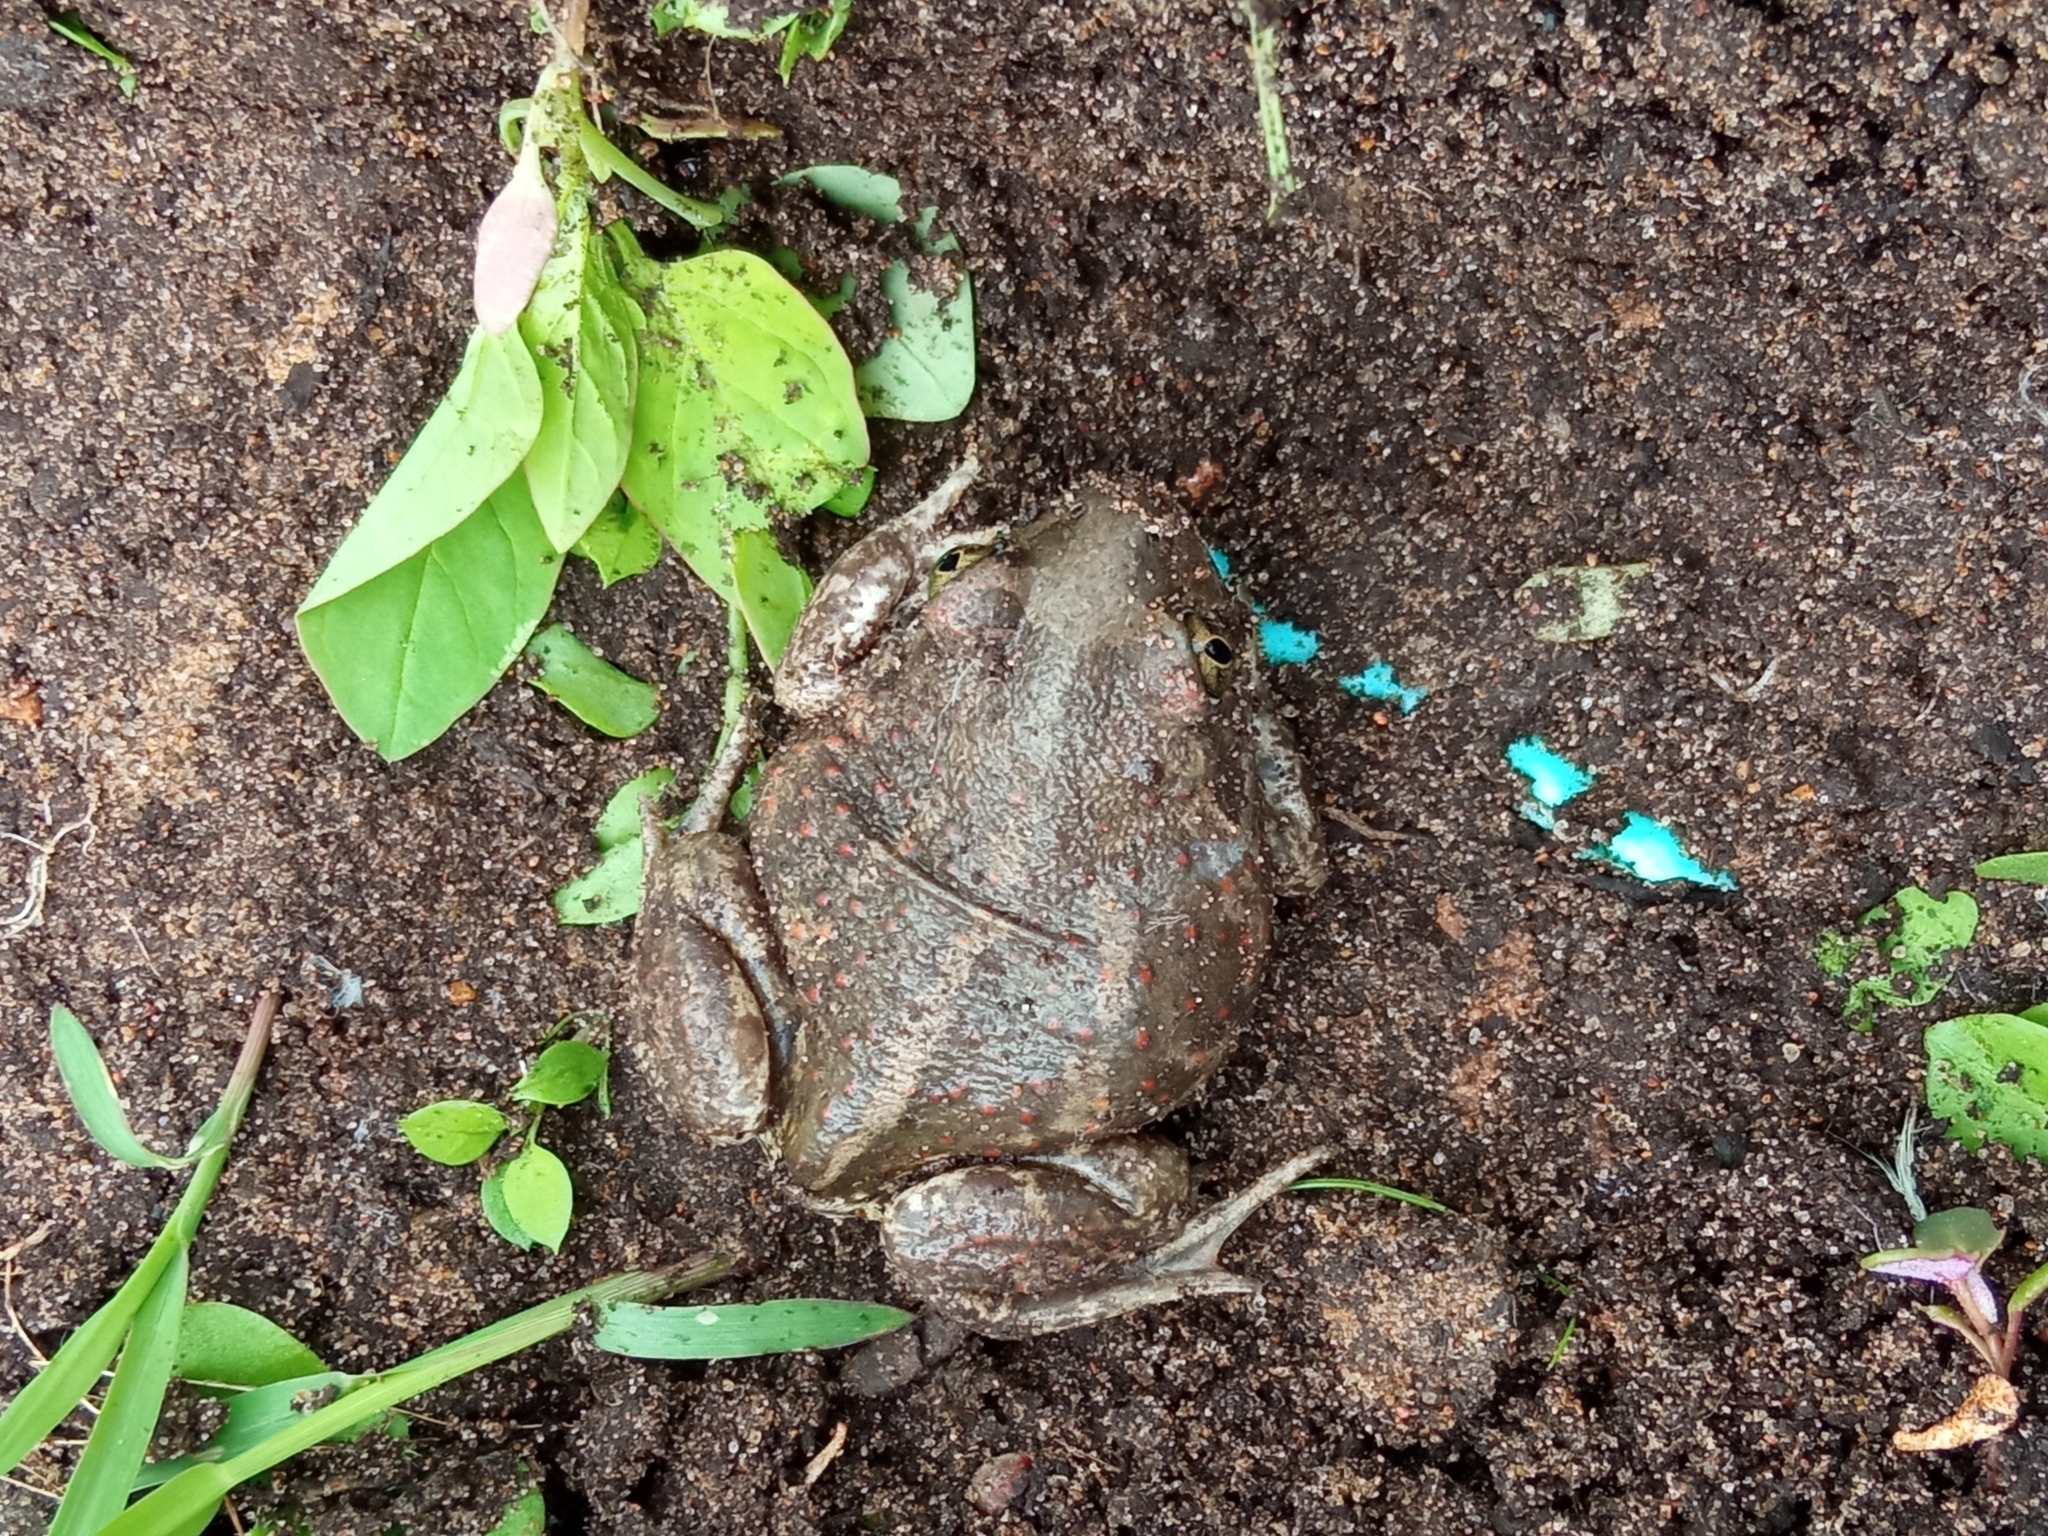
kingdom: Animalia
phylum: Chordata
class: Amphibia
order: Anura
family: Pelobatidae
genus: Pelobates
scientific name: Pelobates vespertinus
